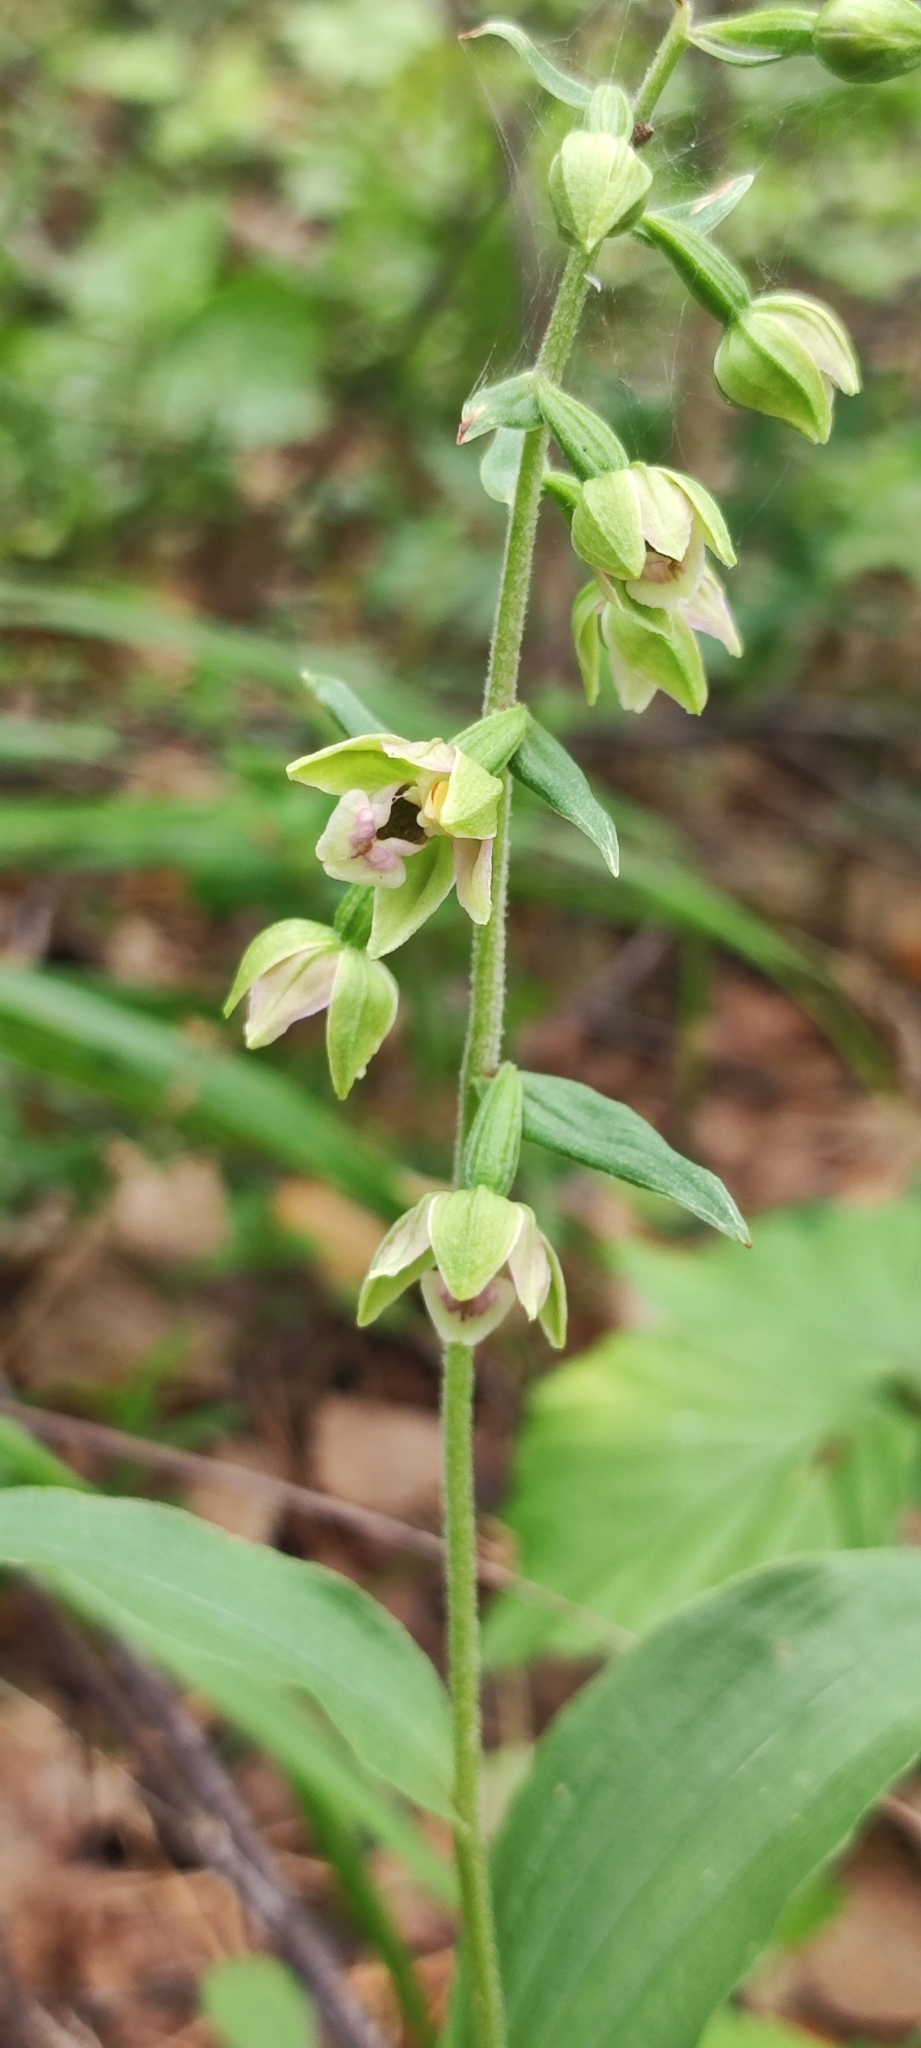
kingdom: Plantae
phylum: Tracheophyta
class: Liliopsida
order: Asparagales
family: Orchidaceae
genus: Epipactis
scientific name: Epipactis helleborine
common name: Broad-leaved helleborine
